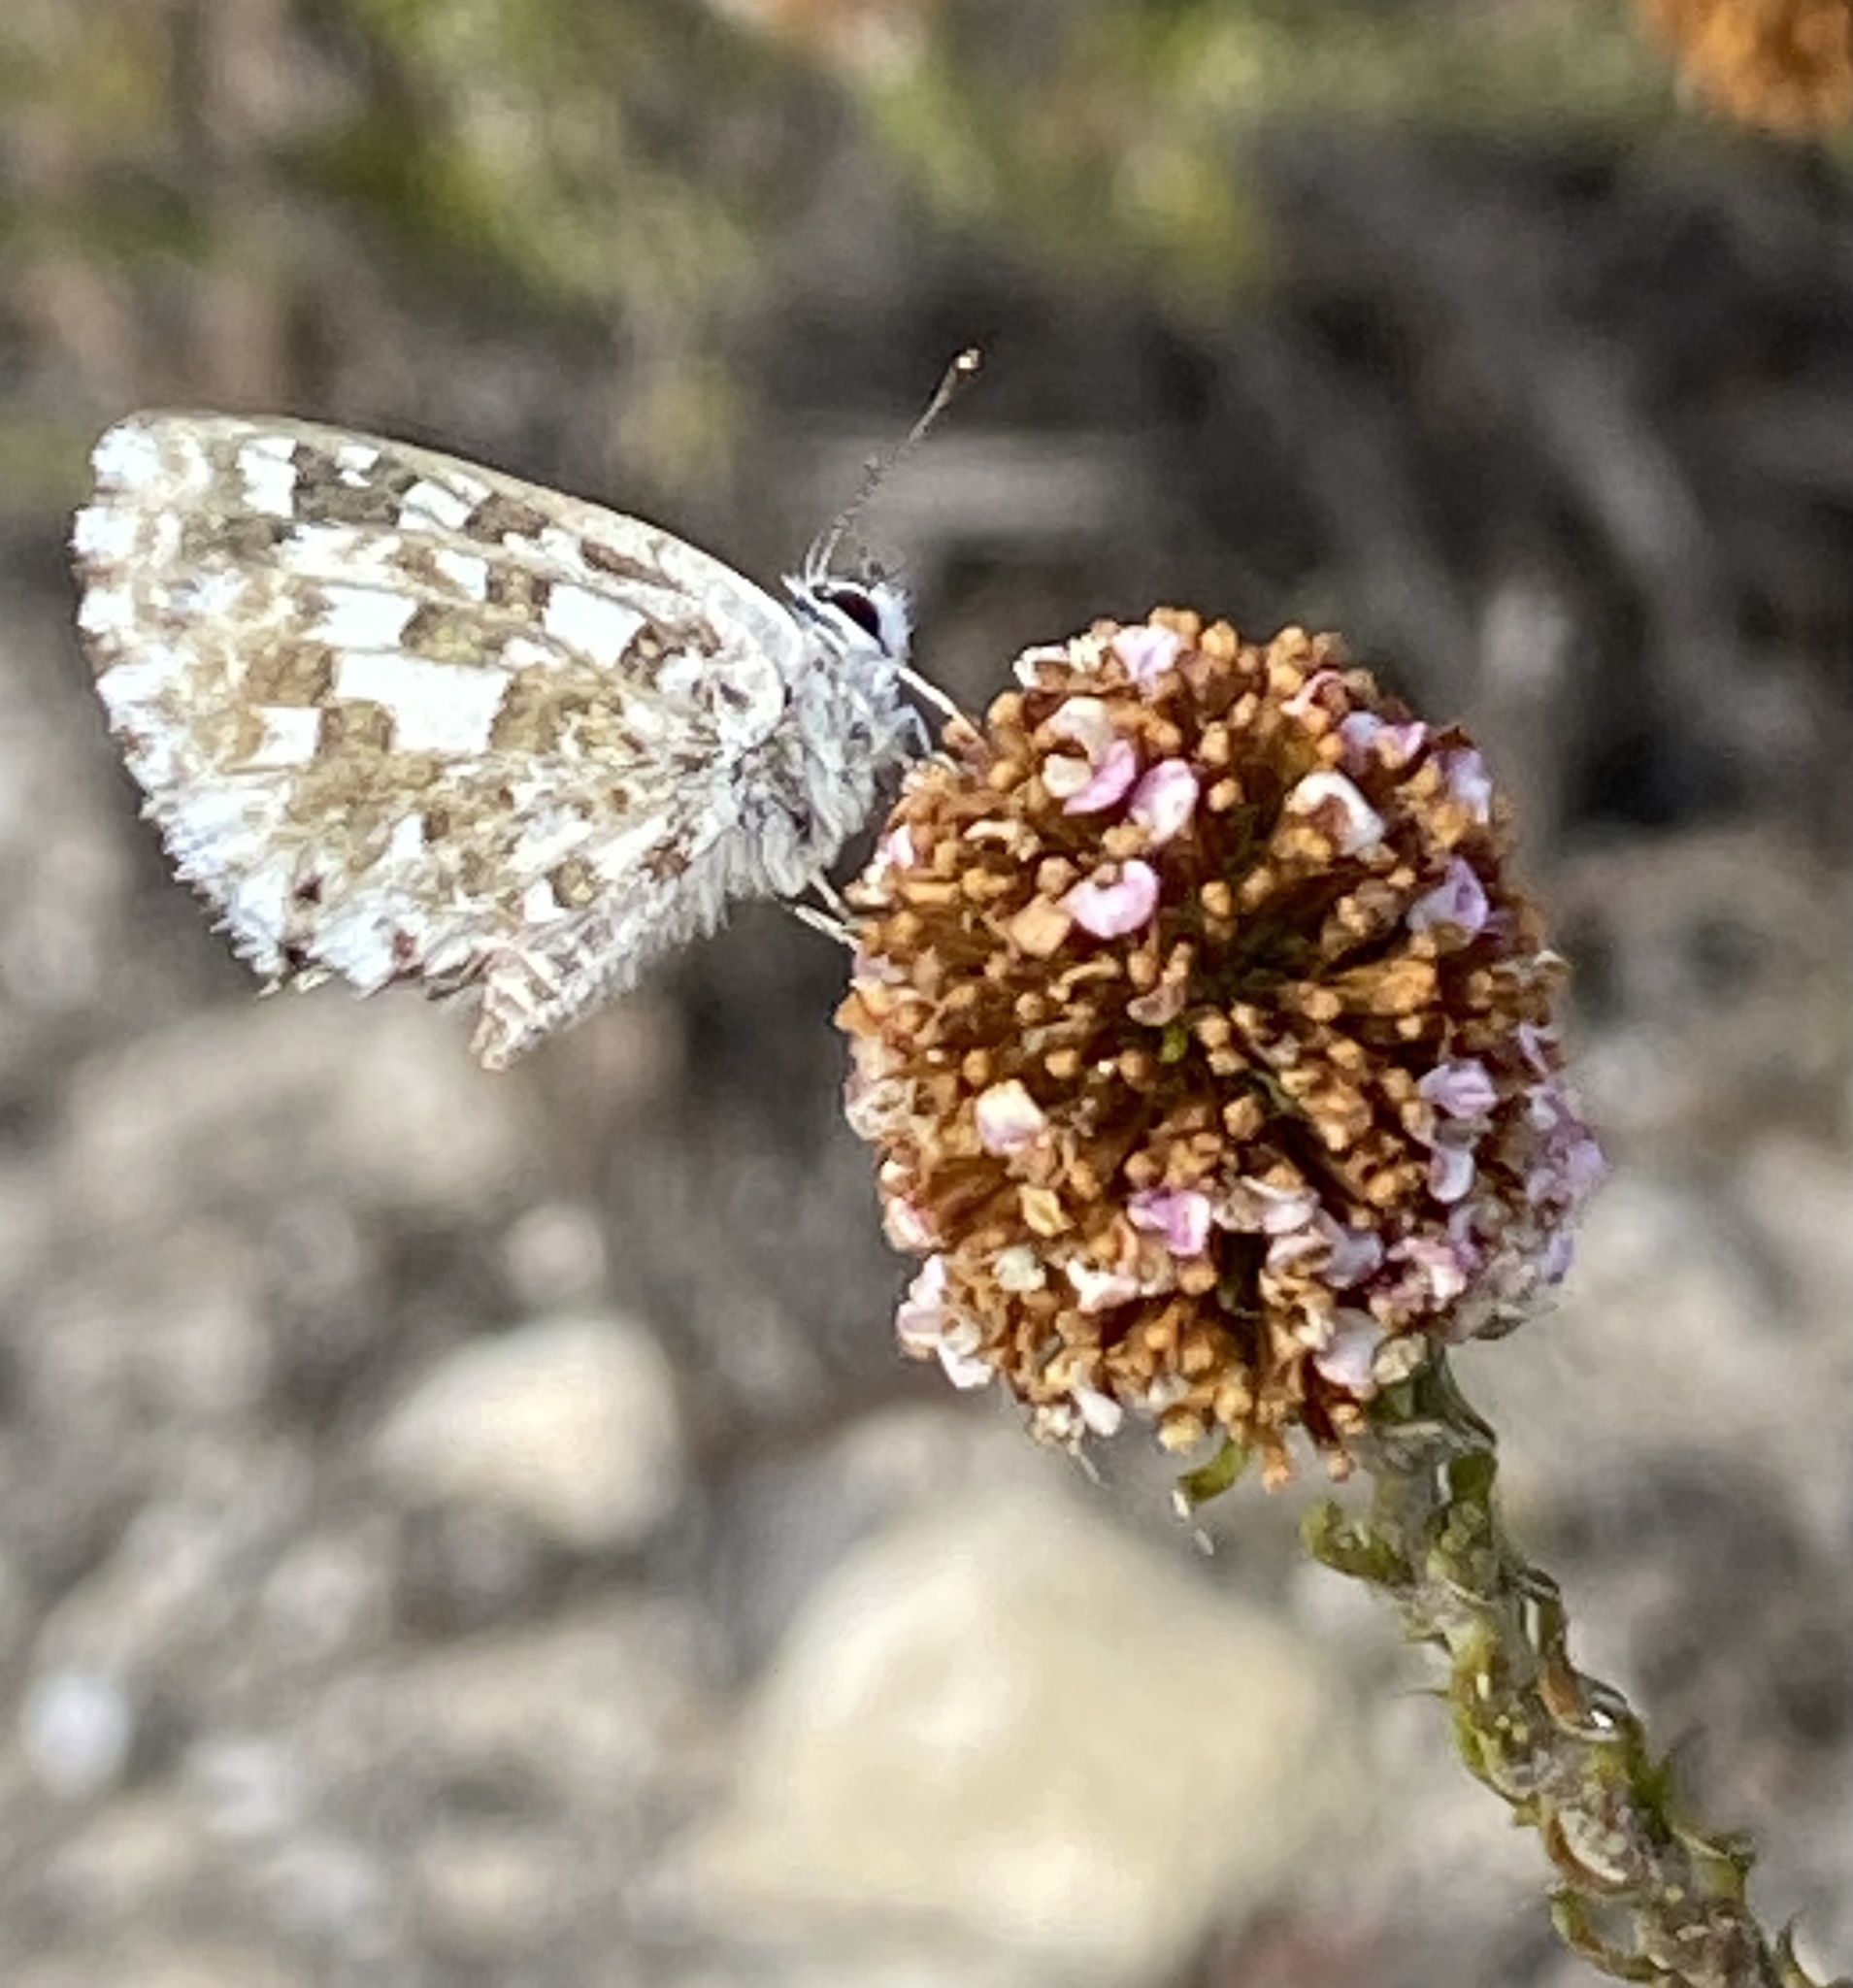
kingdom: Animalia
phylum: Arthropoda
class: Insecta
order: Lepidoptera
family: Lycaenidae
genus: Tarucus
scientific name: Tarucus thespis
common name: Vivid dotted blue
